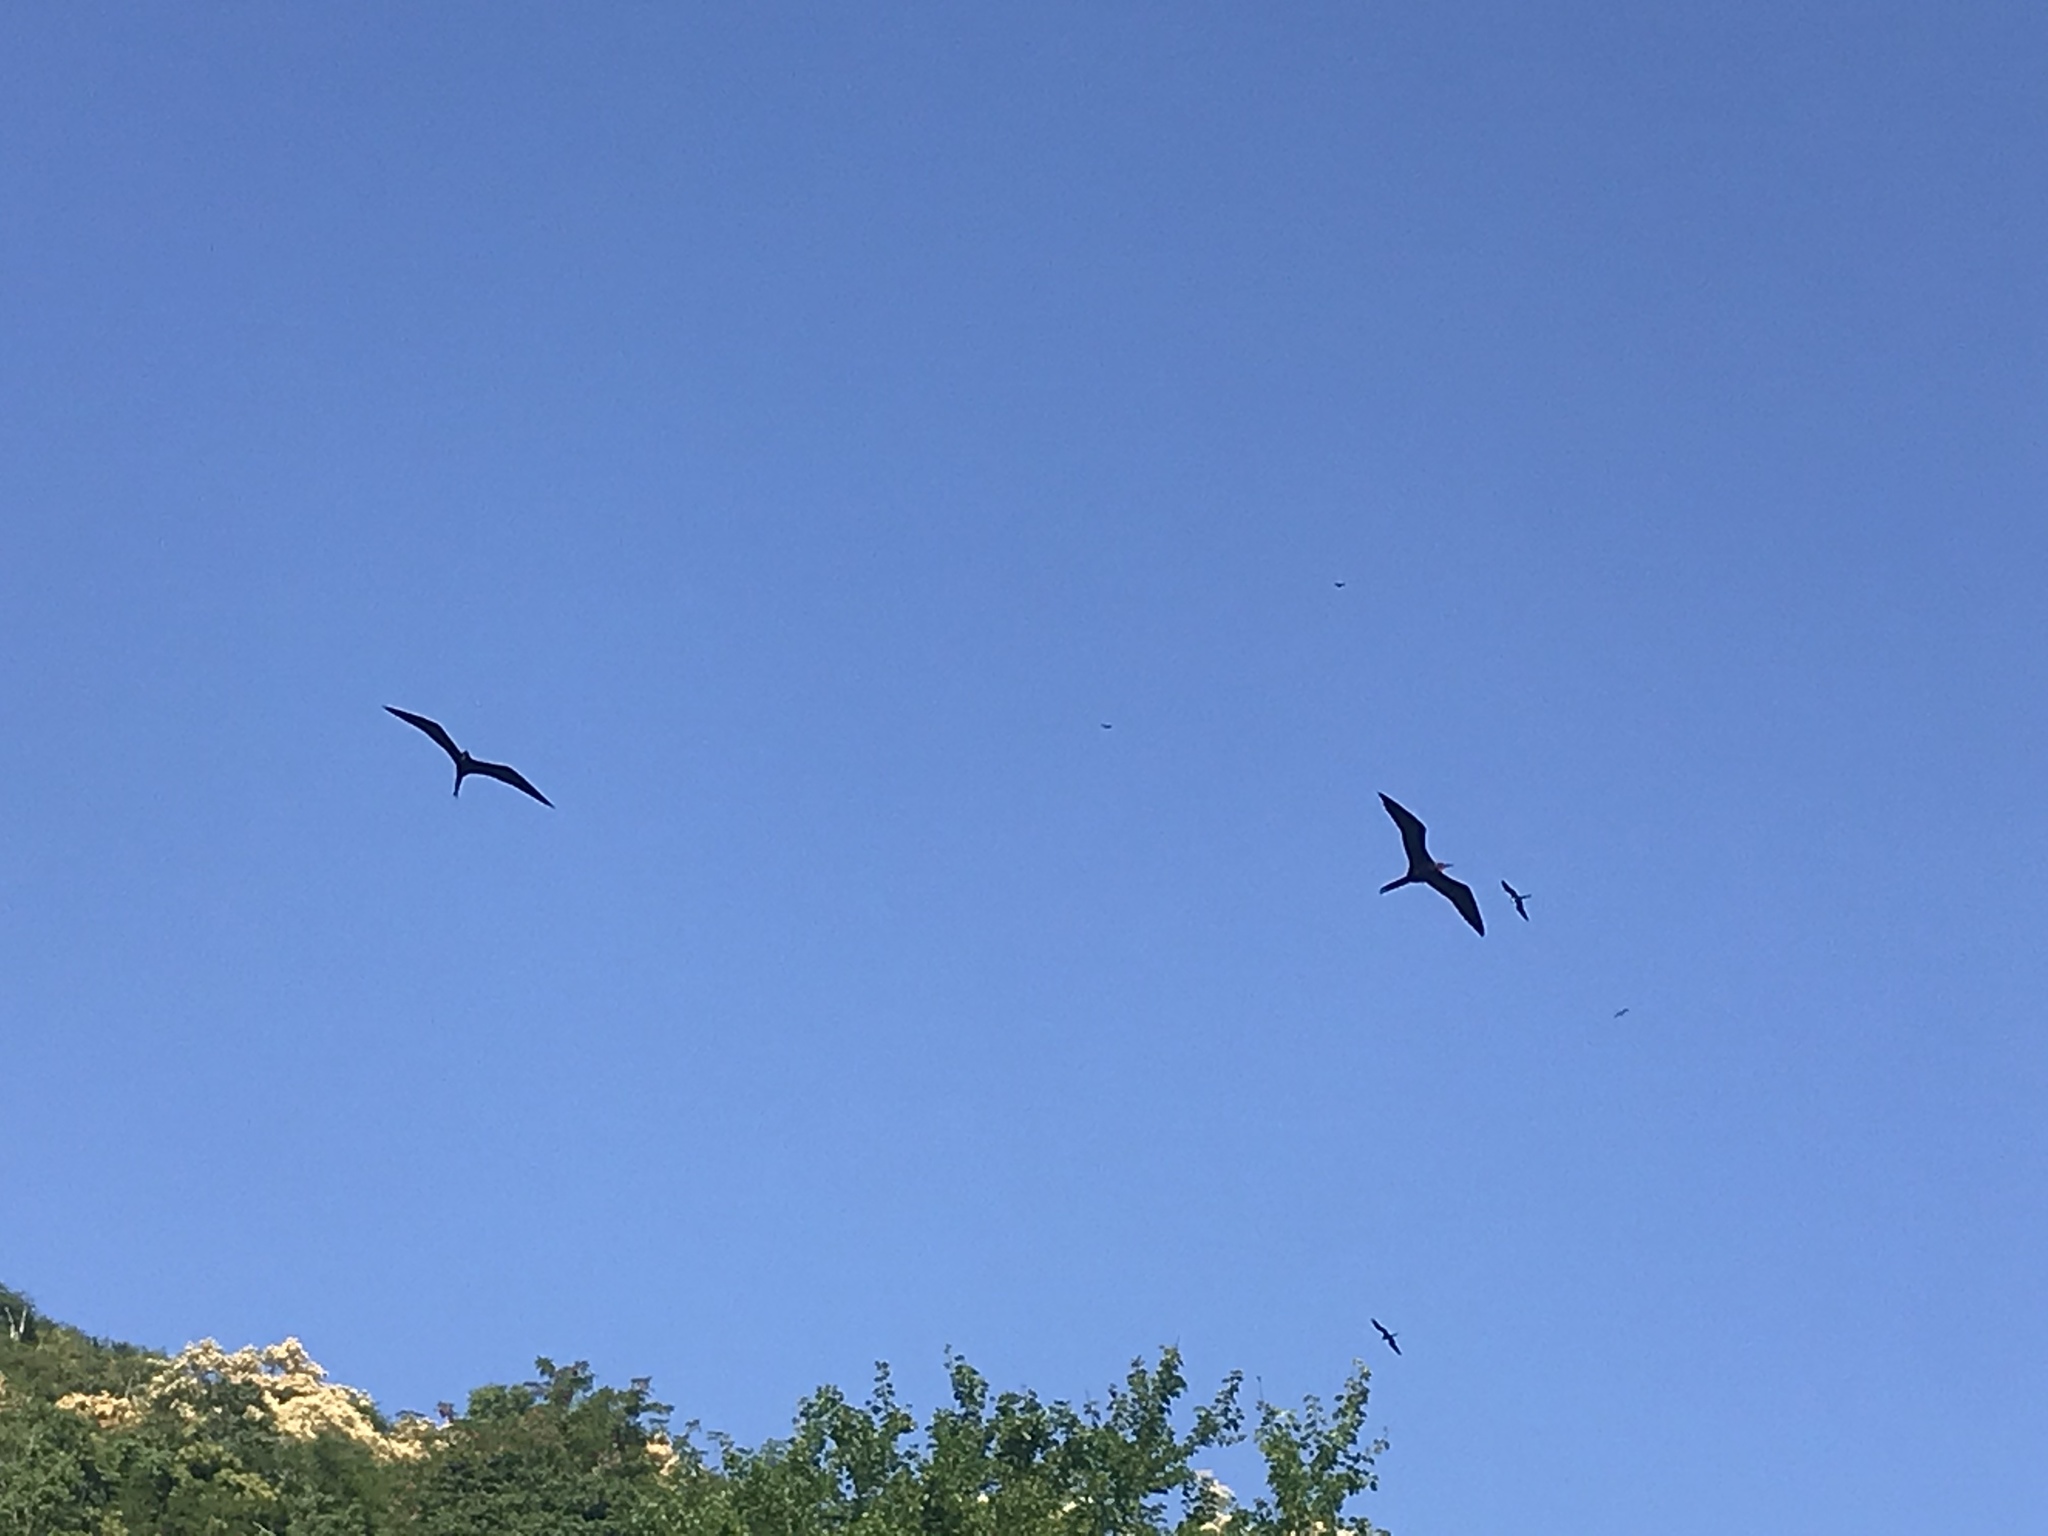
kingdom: Animalia
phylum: Chordata
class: Aves
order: Suliformes
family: Fregatidae
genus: Fregata
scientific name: Fregata magnificens
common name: Magnificent frigatebird
